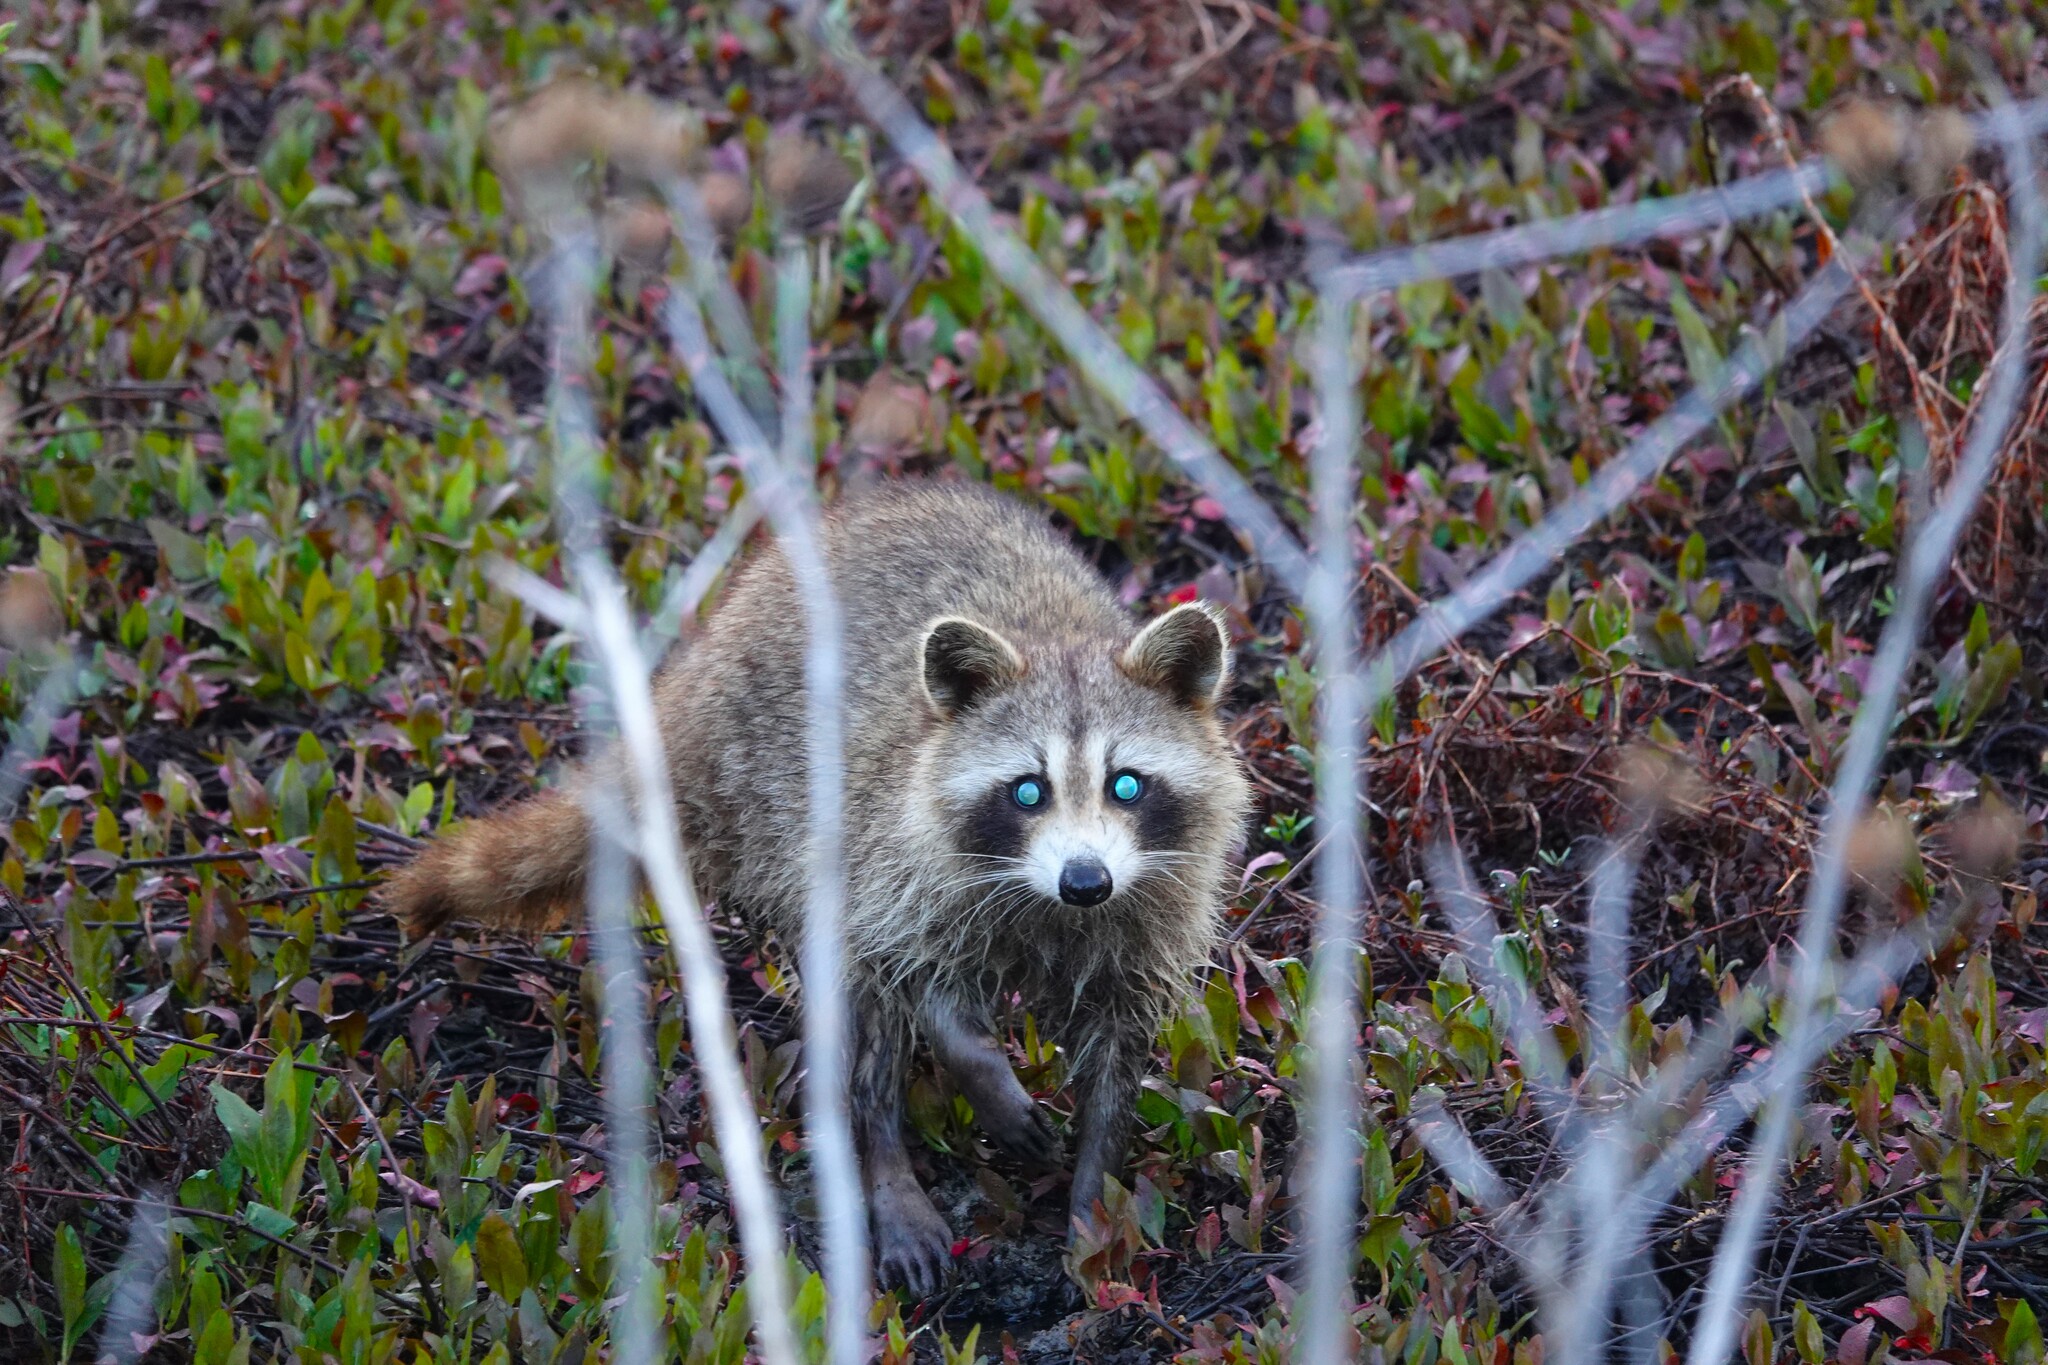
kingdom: Animalia
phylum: Chordata
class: Mammalia
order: Carnivora
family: Procyonidae
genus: Procyon
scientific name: Procyon lotor
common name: Raccoon
